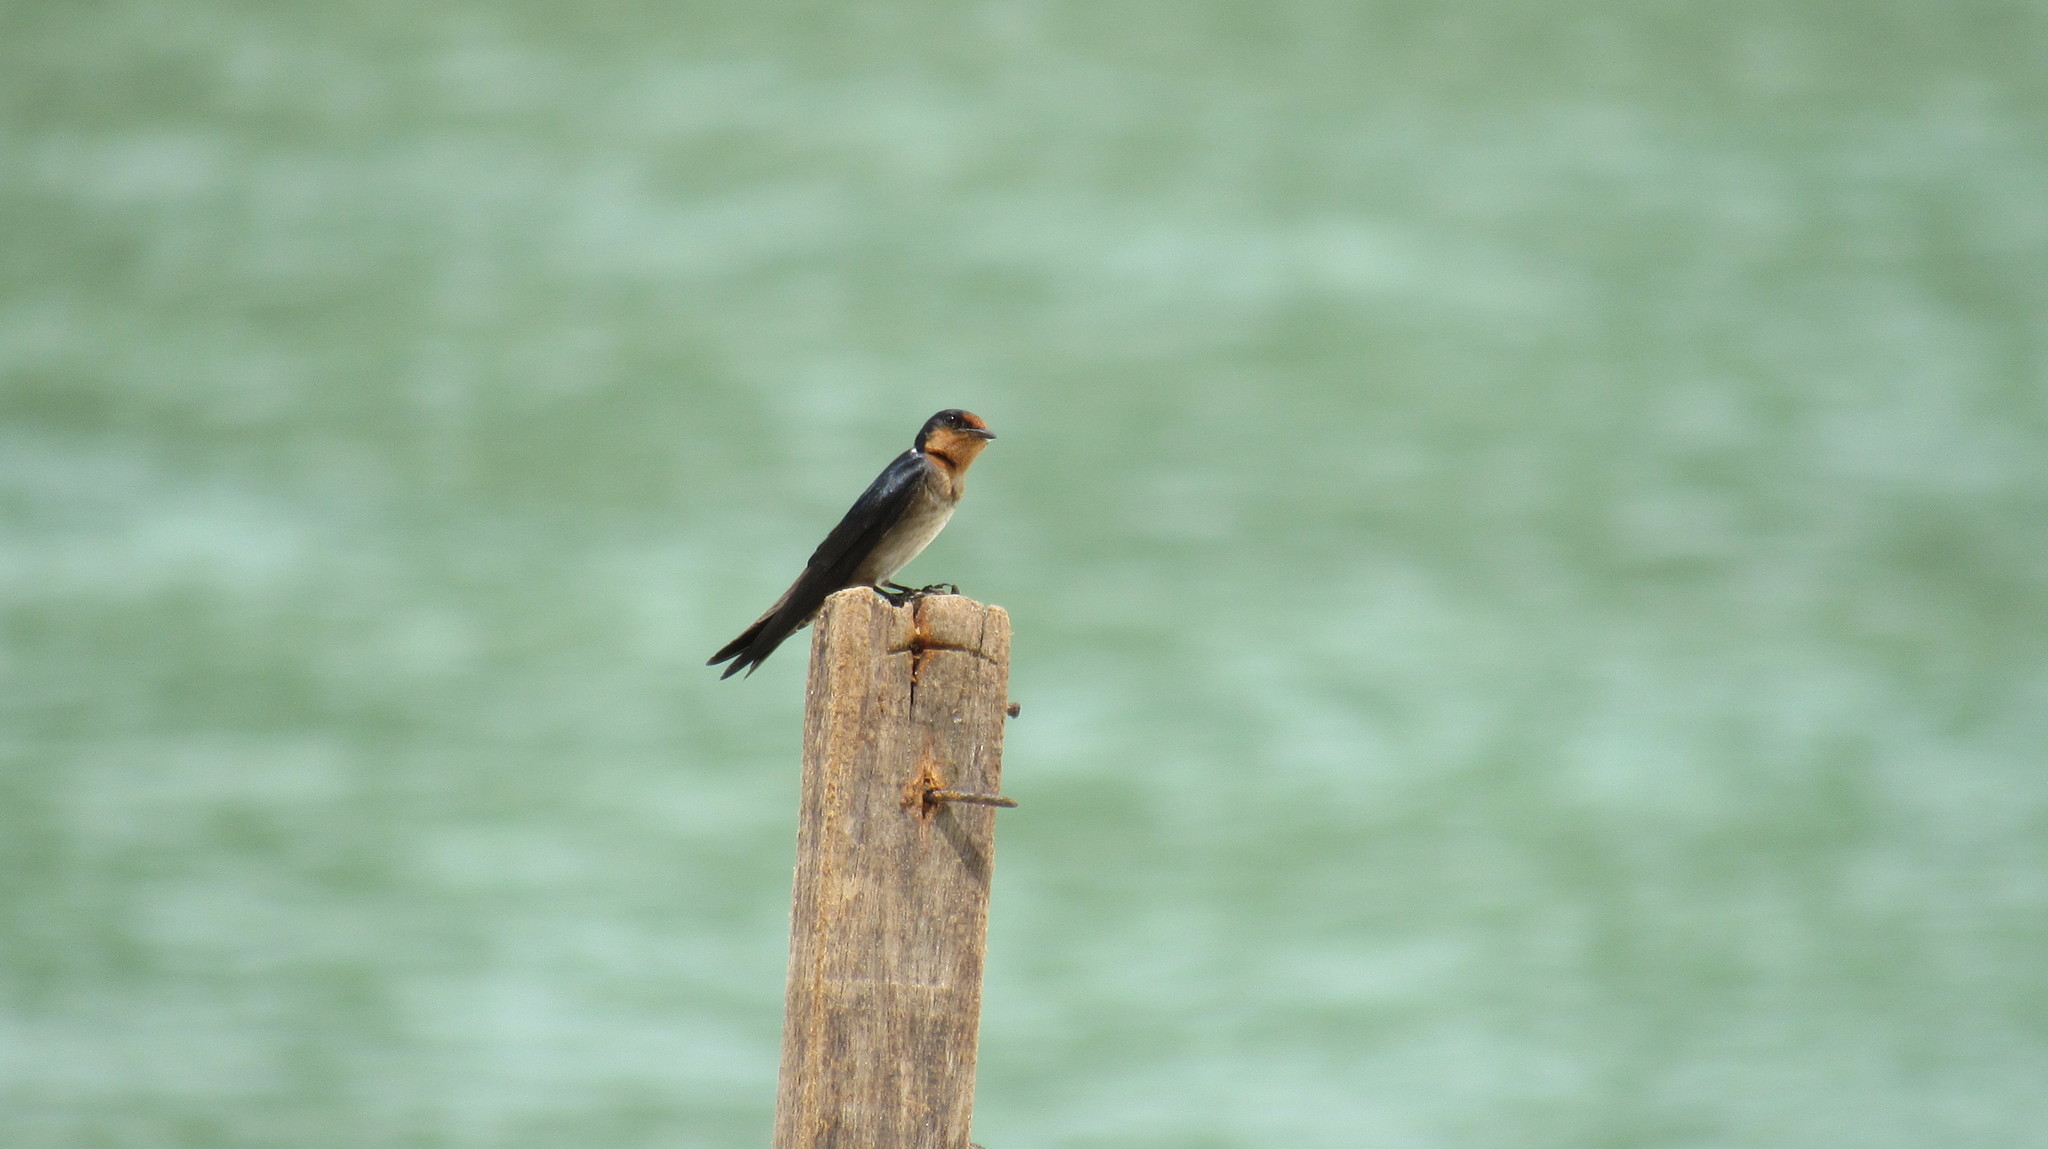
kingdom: Animalia
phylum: Chordata
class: Aves
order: Passeriformes
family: Hirundinidae
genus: Hirundo
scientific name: Hirundo tahitica
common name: Pacific swallow
